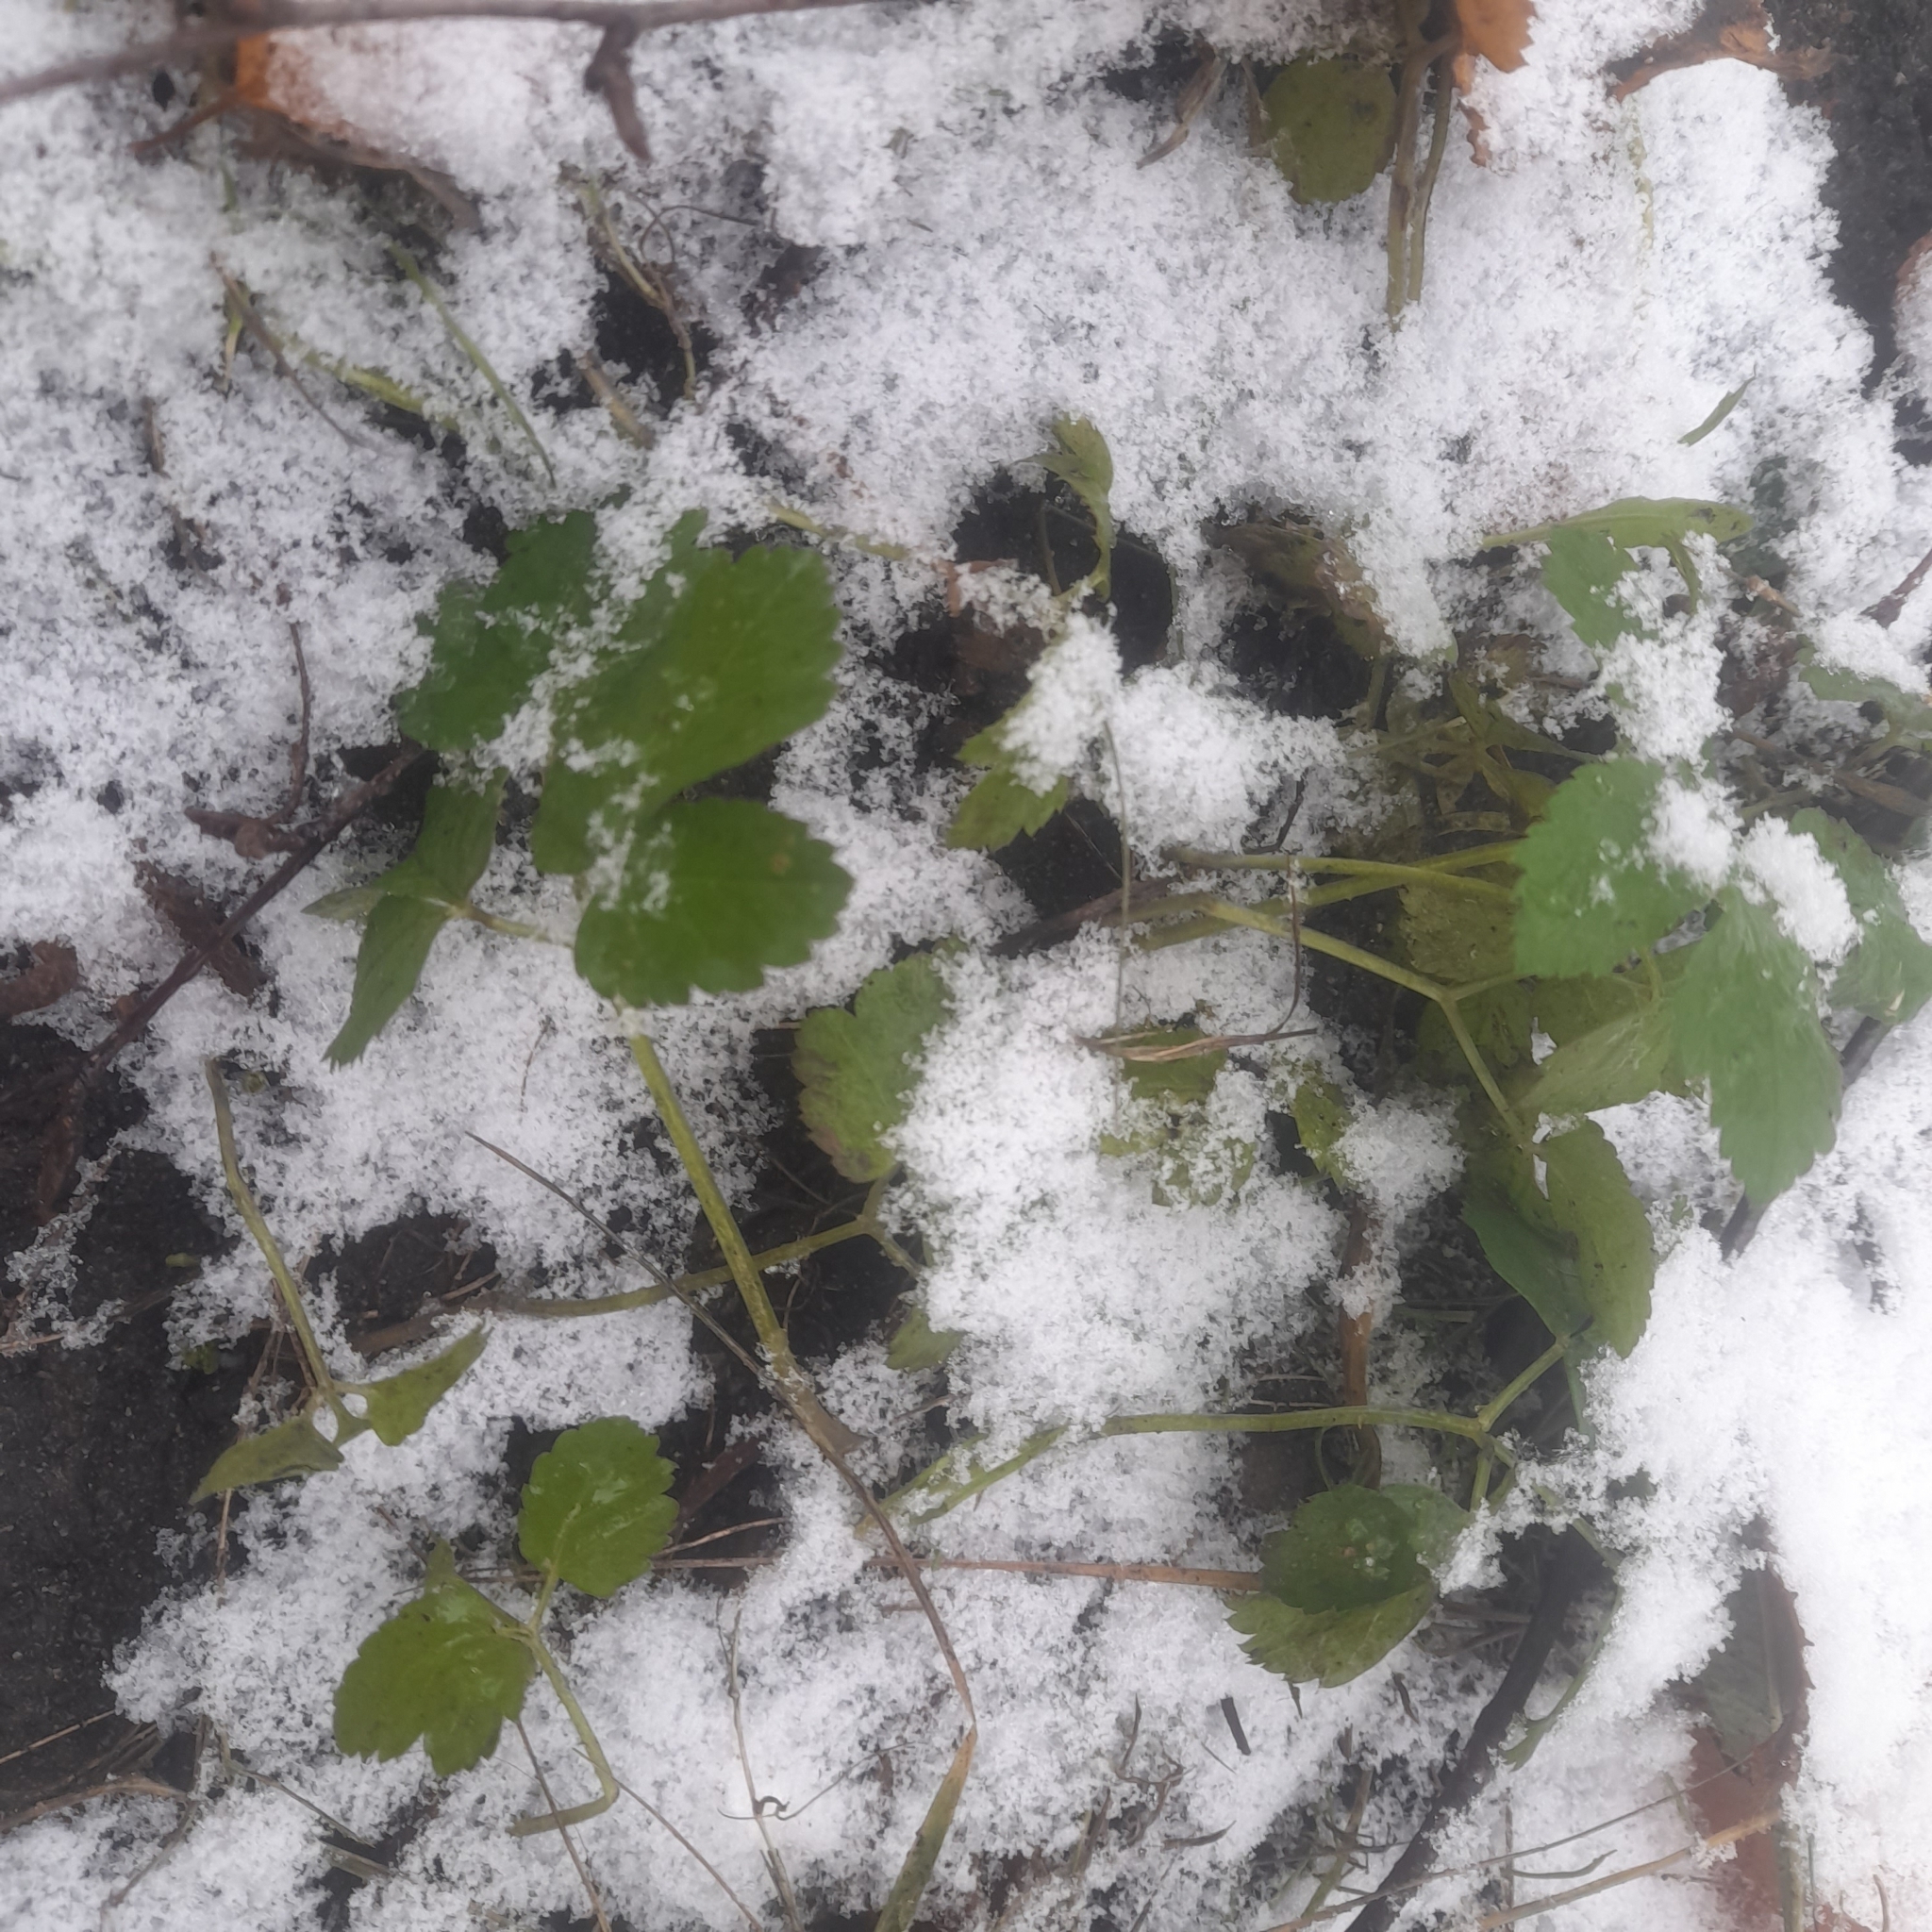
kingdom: Plantae
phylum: Tracheophyta
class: Magnoliopsida
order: Apiales
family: Apiaceae
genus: Aegopodium
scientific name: Aegopodium podagraria
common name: Ground-elder
